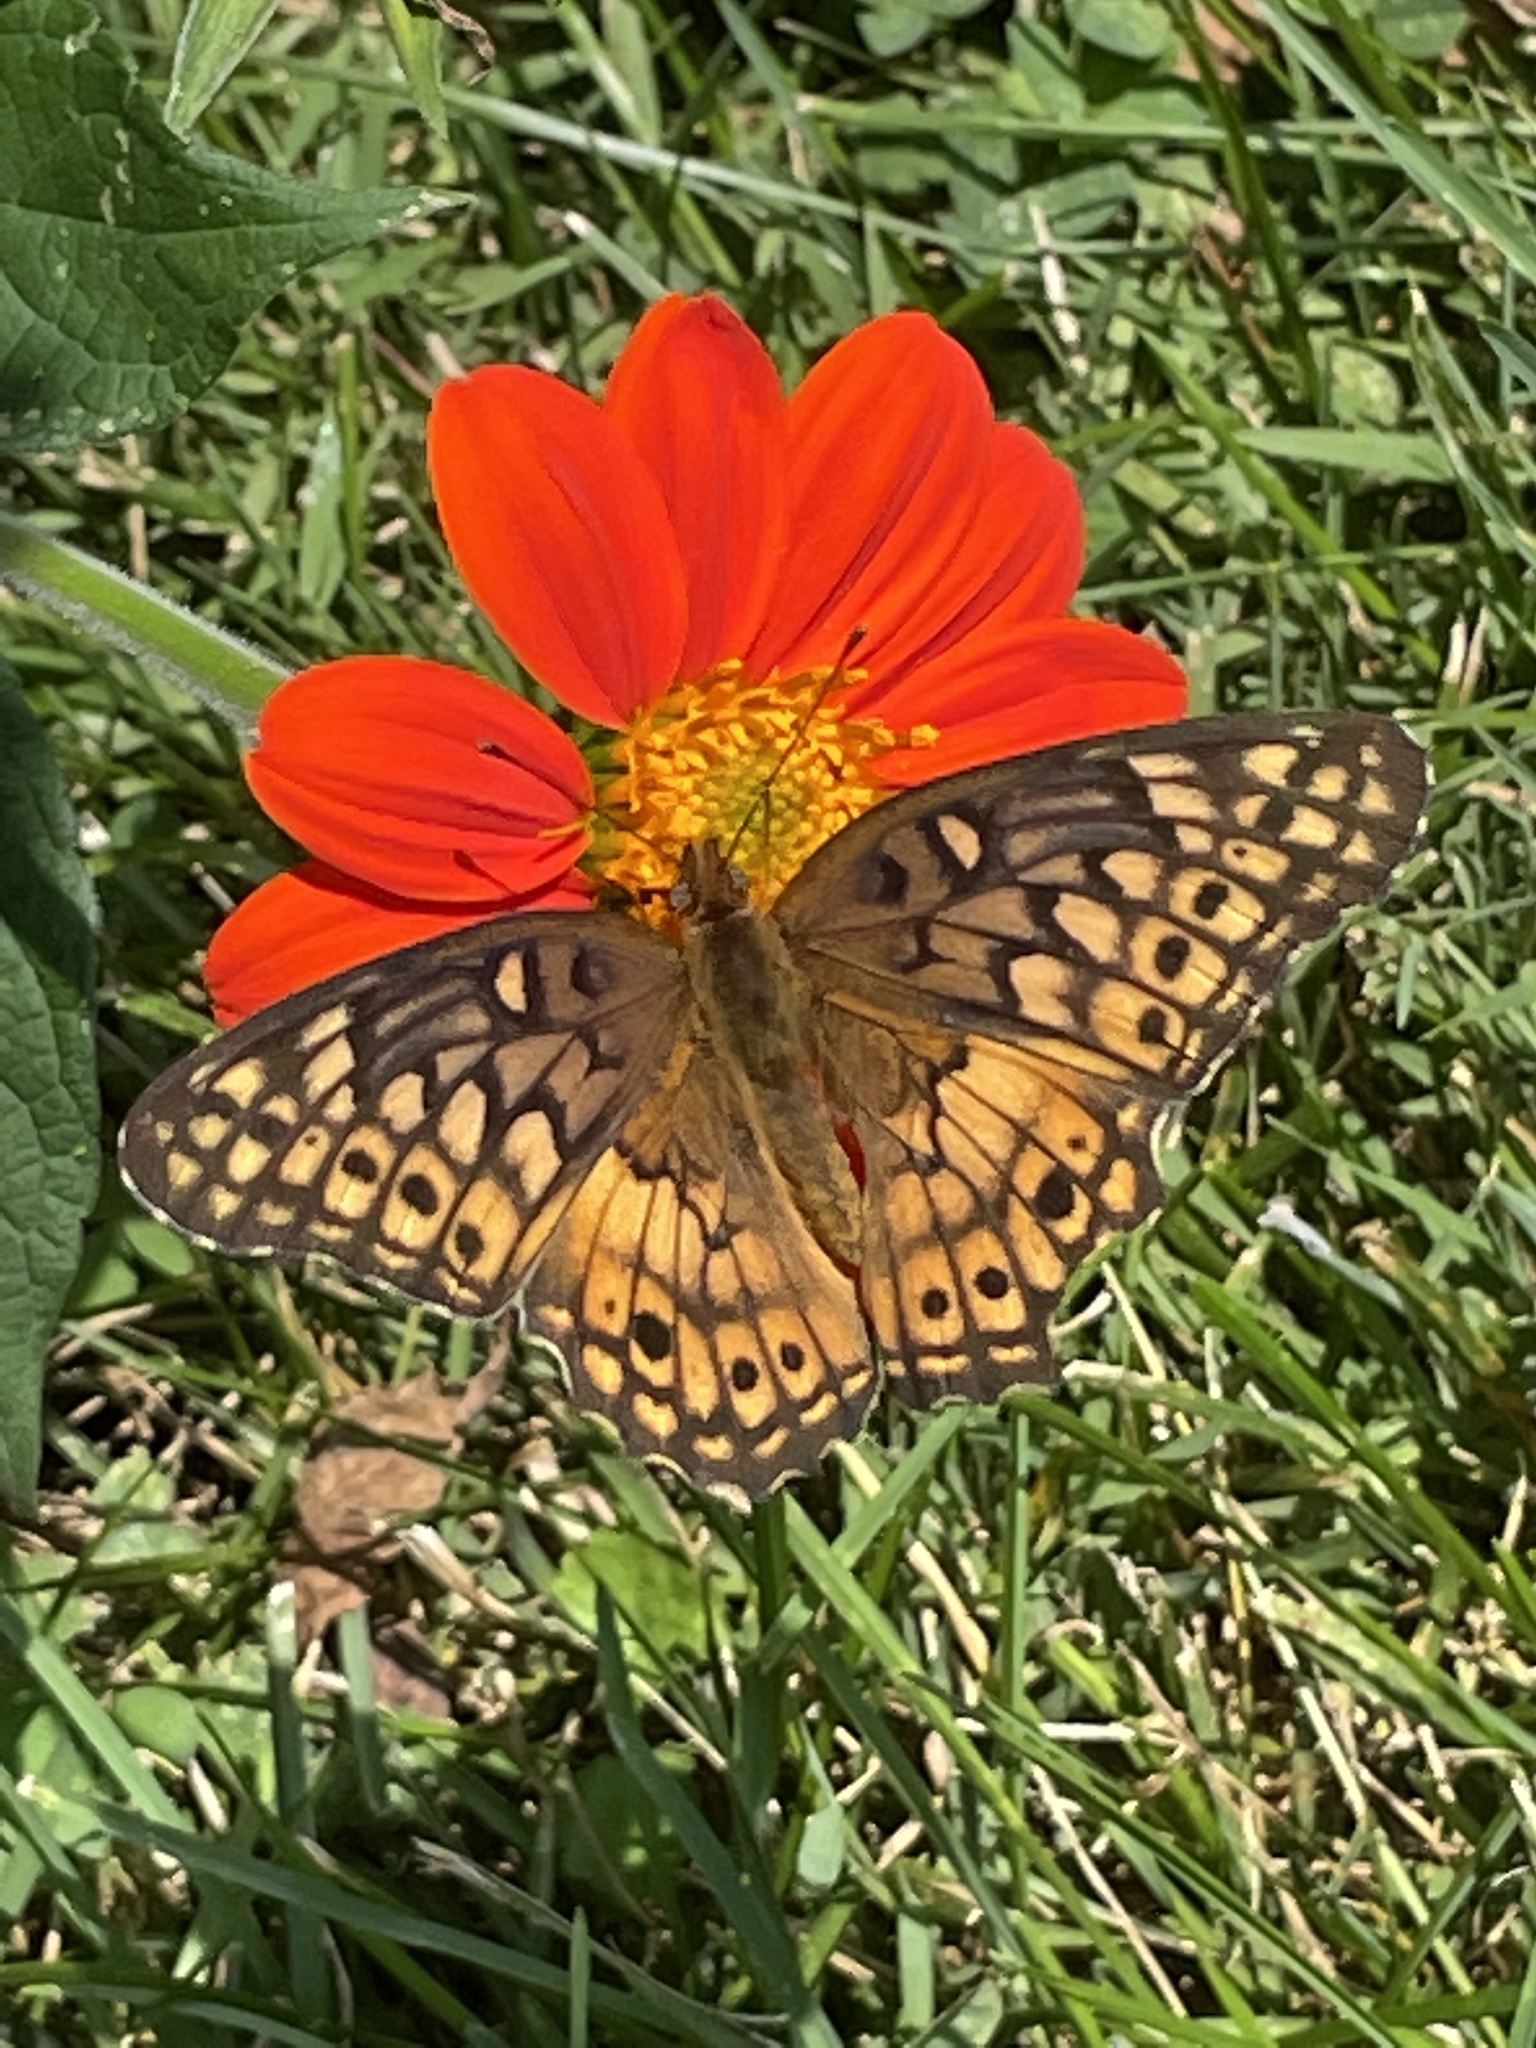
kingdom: Animalia
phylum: Arthropoda
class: Insecta
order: Lepidoptera
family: Nymphalidae
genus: Euptoieta
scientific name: Euptoieta claudia
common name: Variegated fritillary
